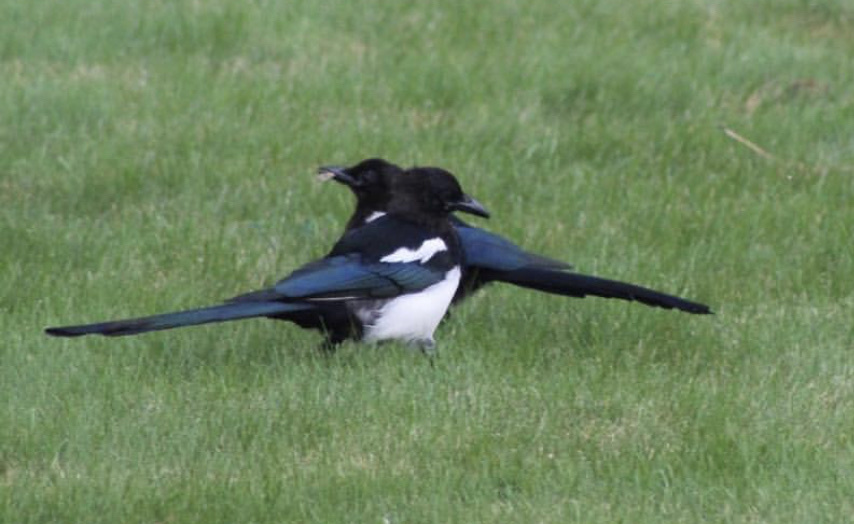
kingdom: Animalia
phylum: Chordata
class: Aves
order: Passeriformes
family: Corvidae
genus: Pica
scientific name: Pica hudsonia
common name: Black-billed magpie
